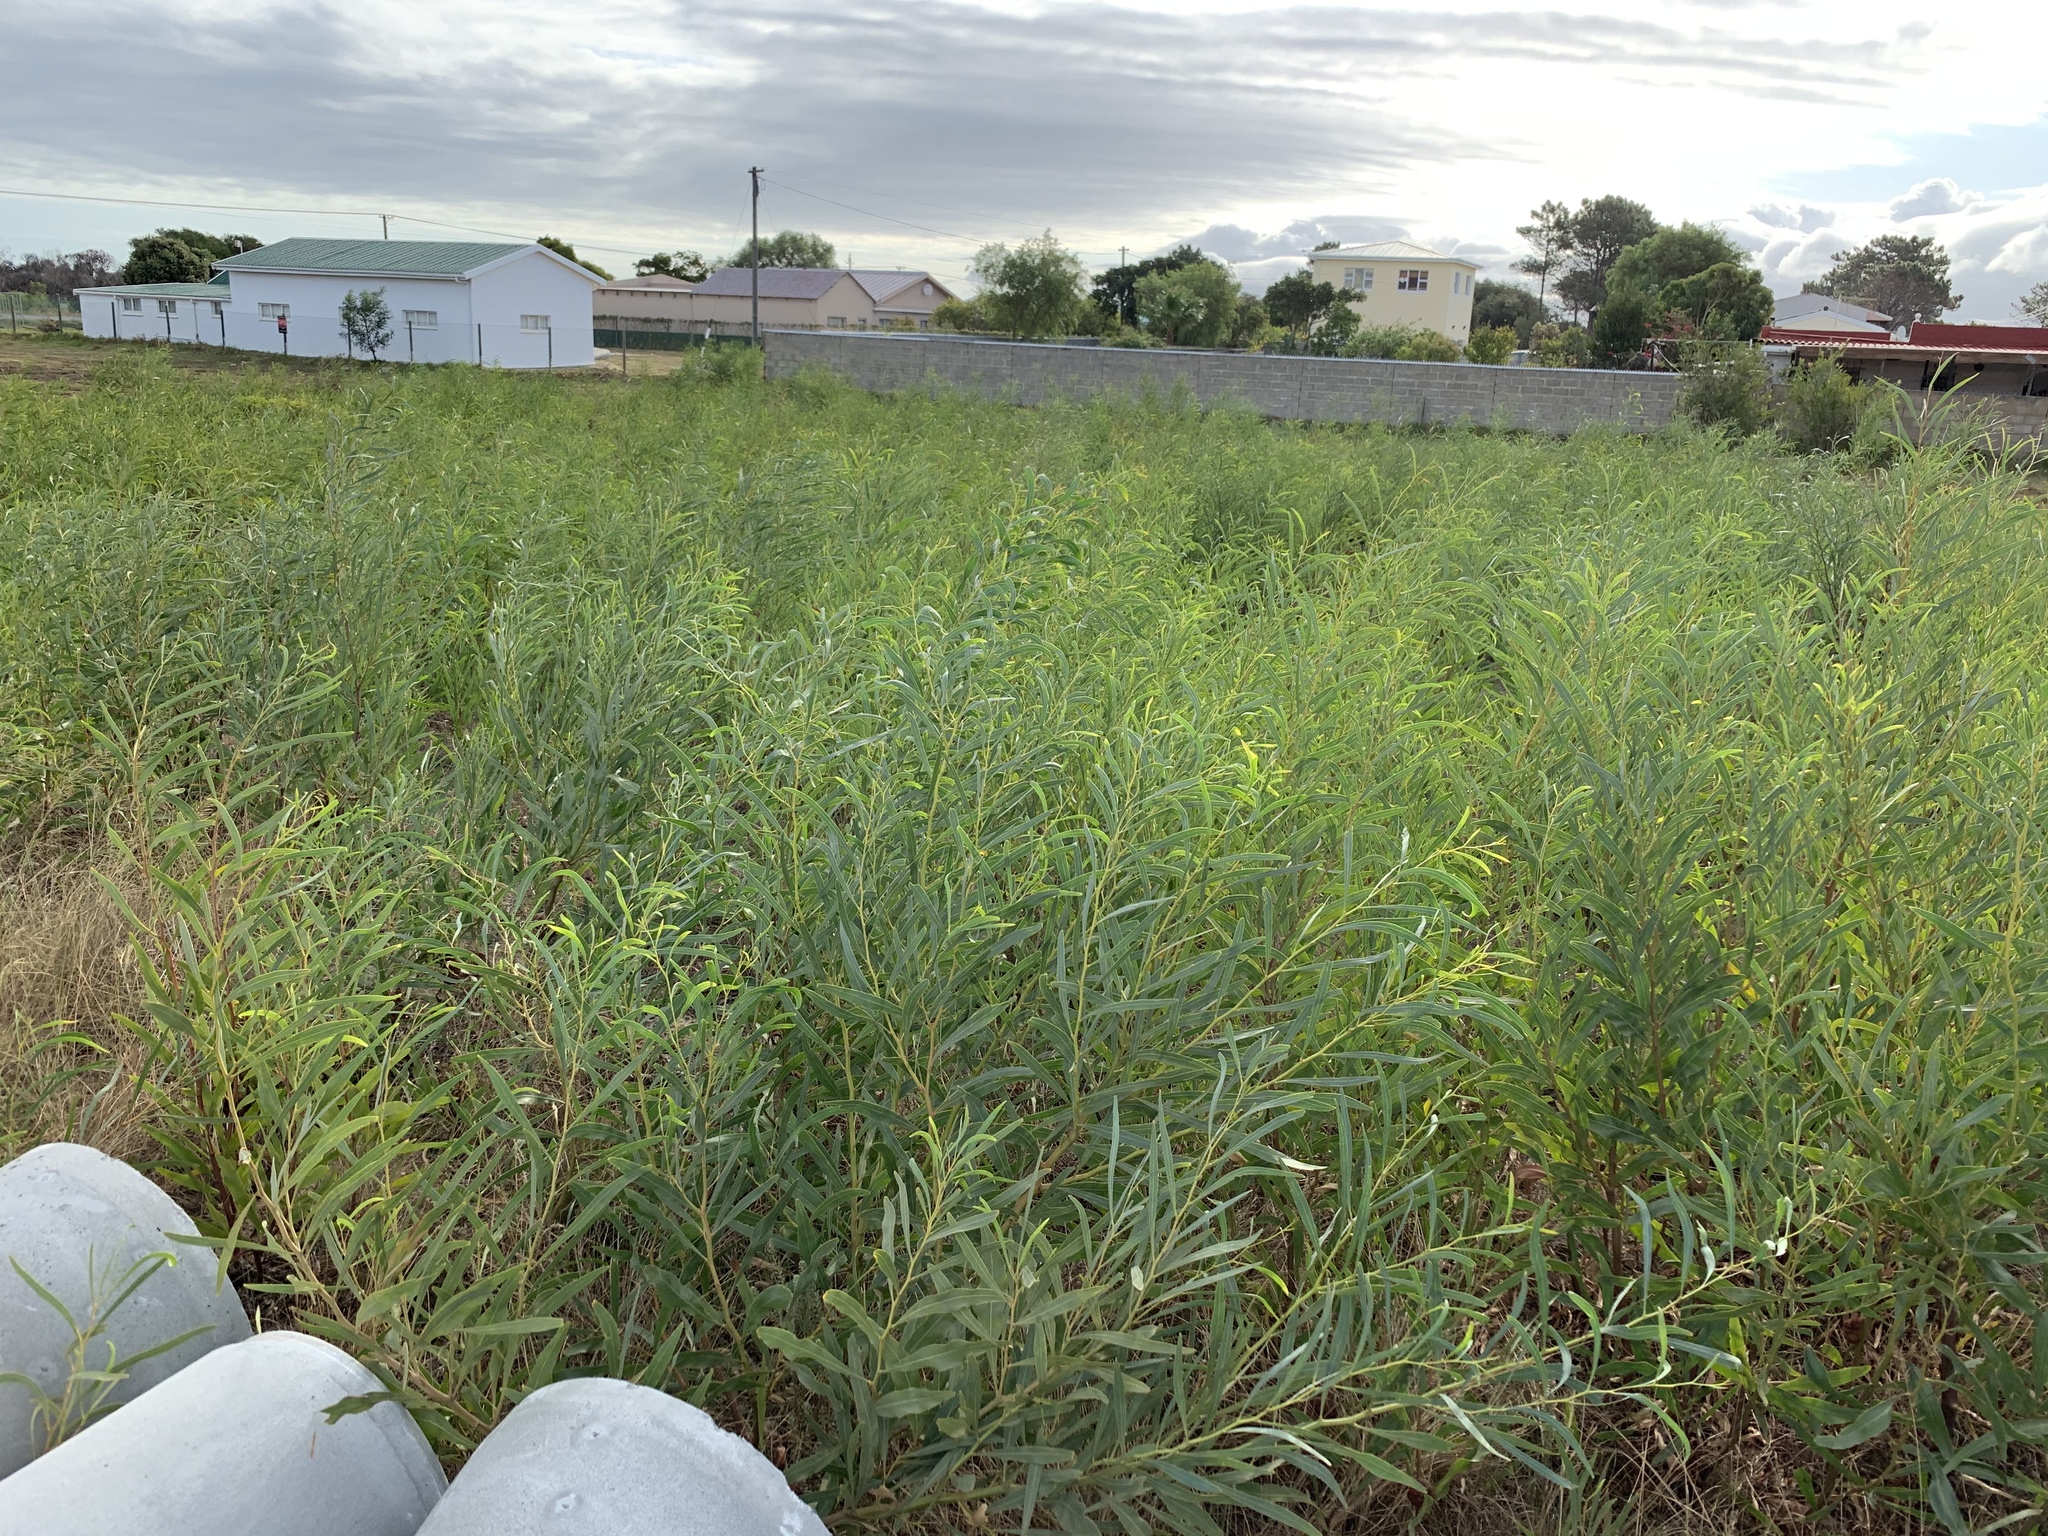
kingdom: Plantae
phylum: Tracheophyta
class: Magnoliopsida
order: Fabales
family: Fabaceae
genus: Acacia
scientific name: Acacia saligna
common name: Orange wattle
